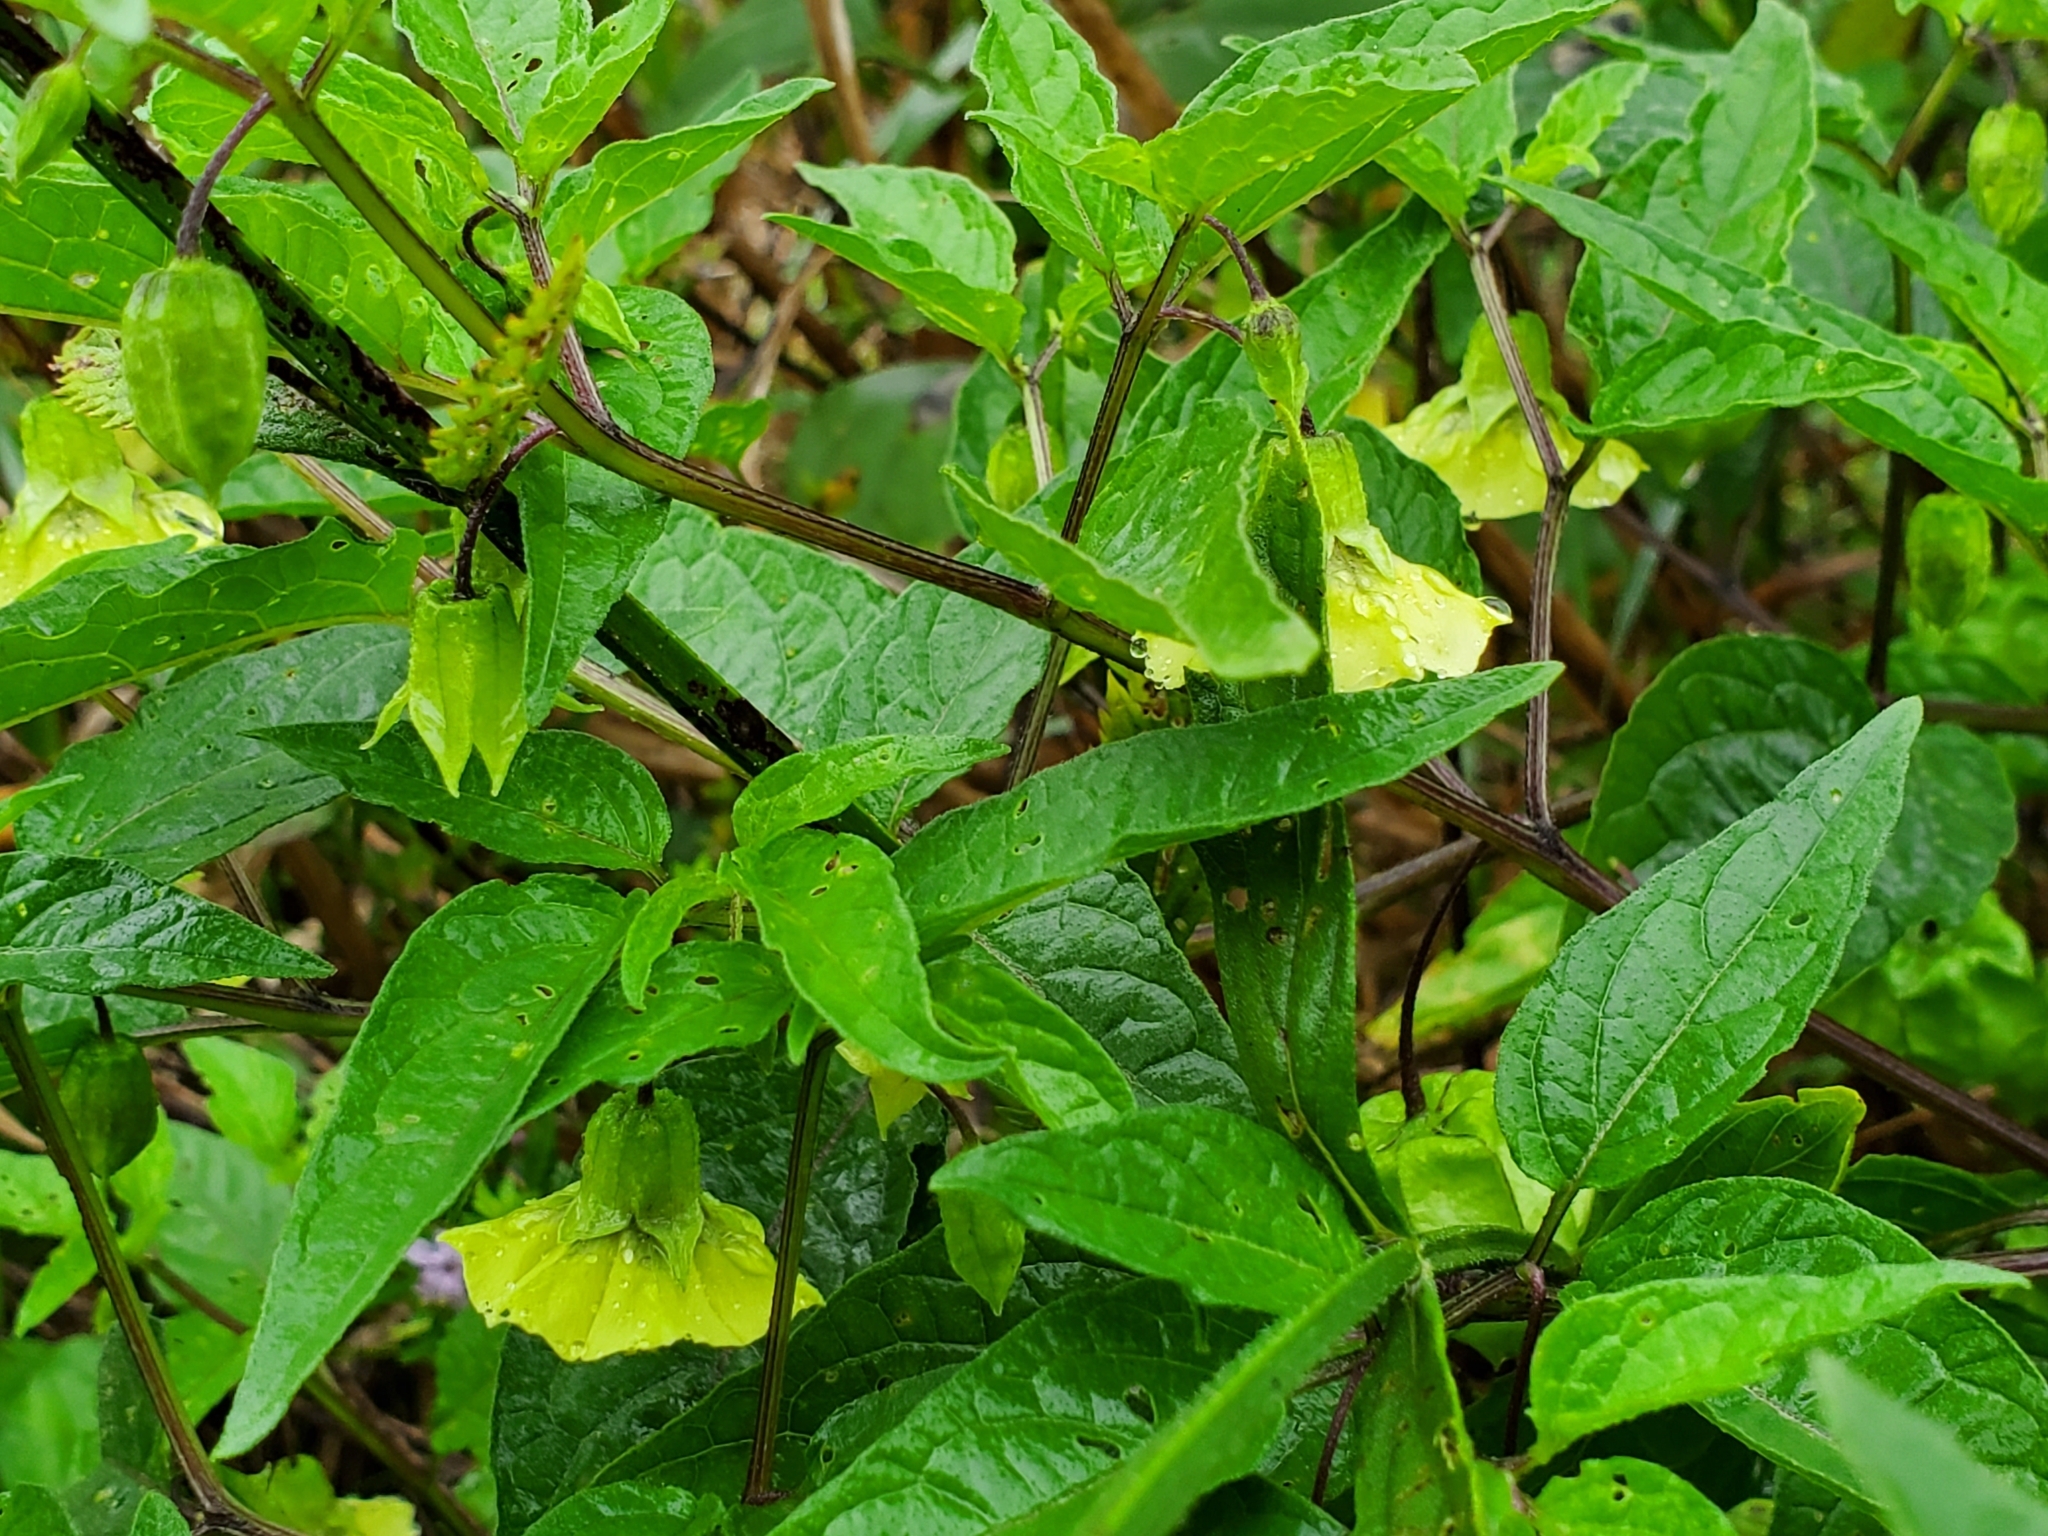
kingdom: Plantae
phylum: Tracheophyta
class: Magnoliopsida
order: Solanales
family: Solanaceae
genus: Physalis
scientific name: Physalis longifolia
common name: Common ground-cherry
